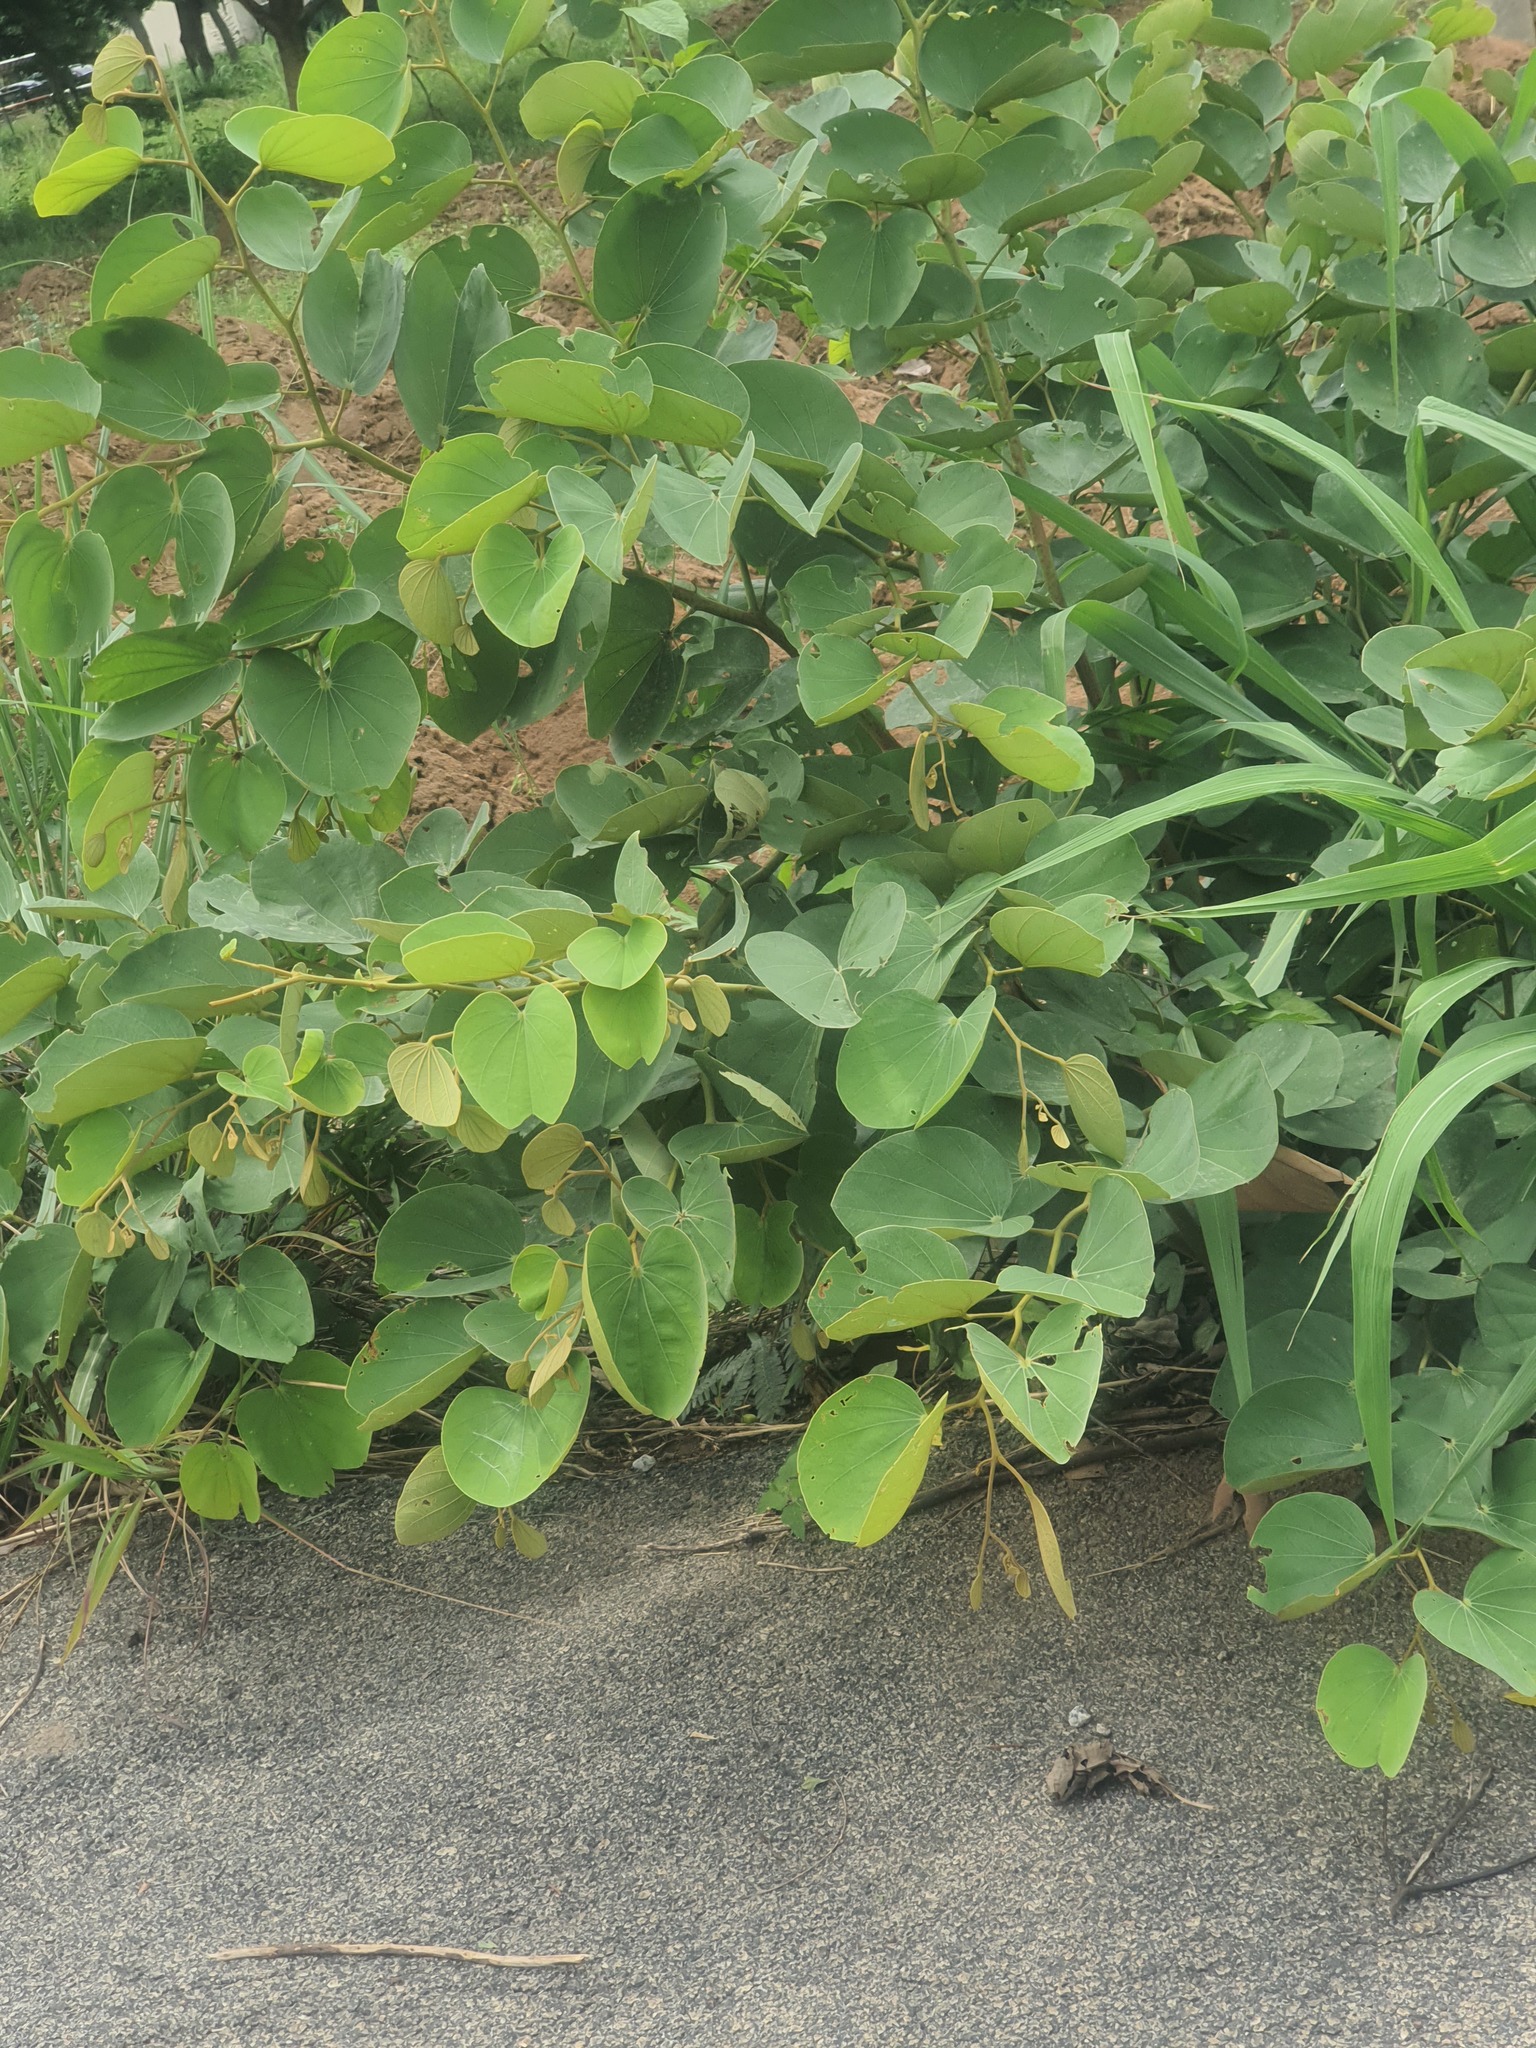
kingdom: Plantae
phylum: Tracheophyta
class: Magnoliopsida
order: Fabales
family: Fabaceae
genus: Piliostigma
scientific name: Piliostigma thonningii
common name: Kao
